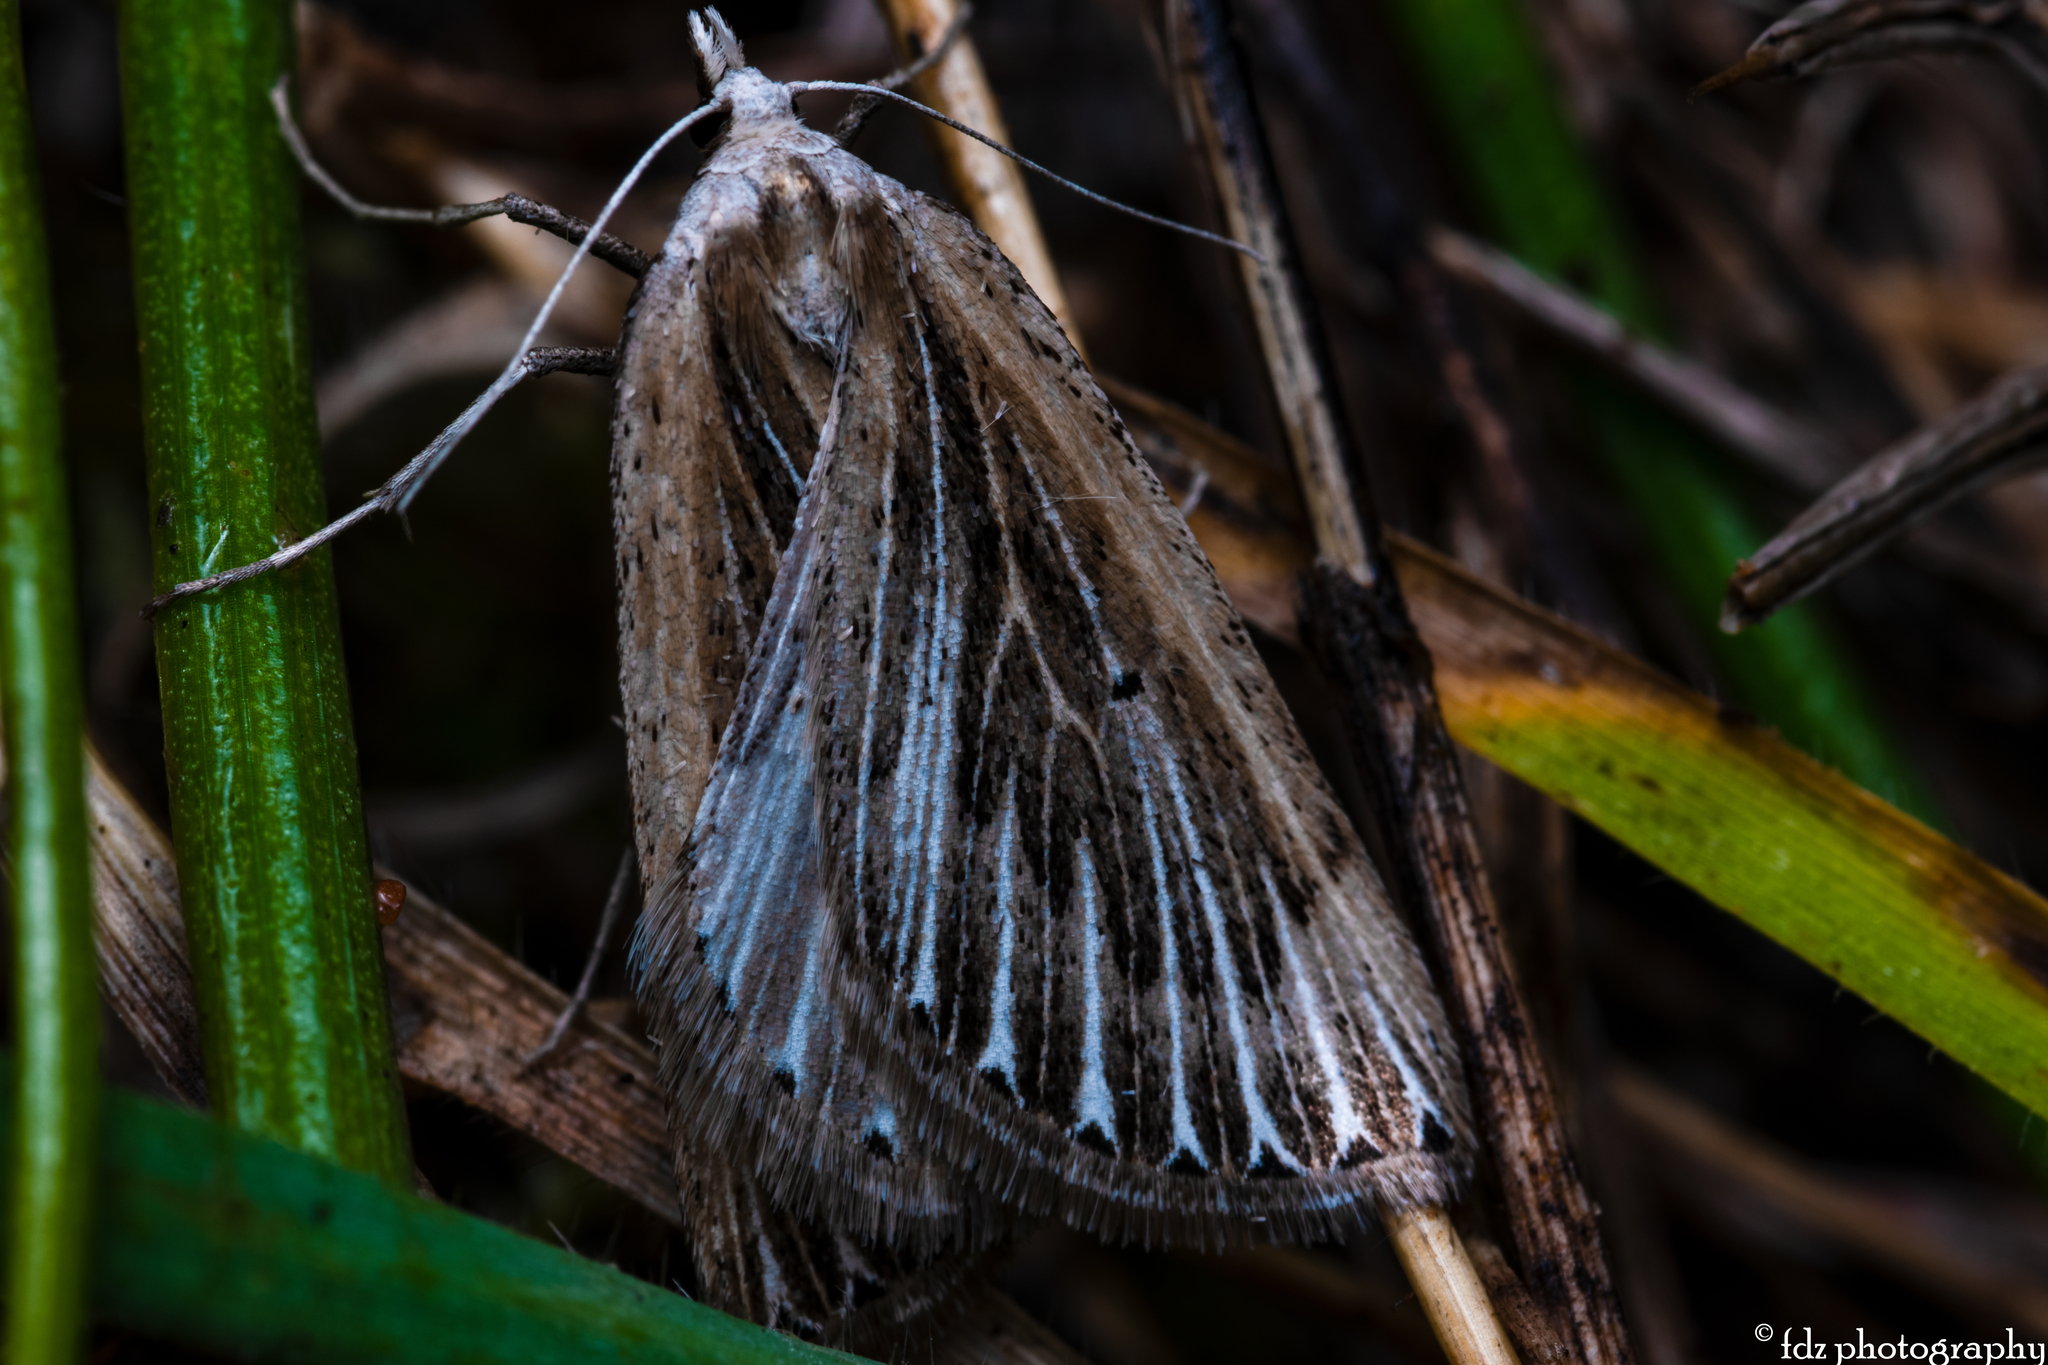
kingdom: Animalia
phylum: Arthropoda
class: Insecta
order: Lepidoptera
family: Geometridae
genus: Myinodes
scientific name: Myinodes interpunctaria
